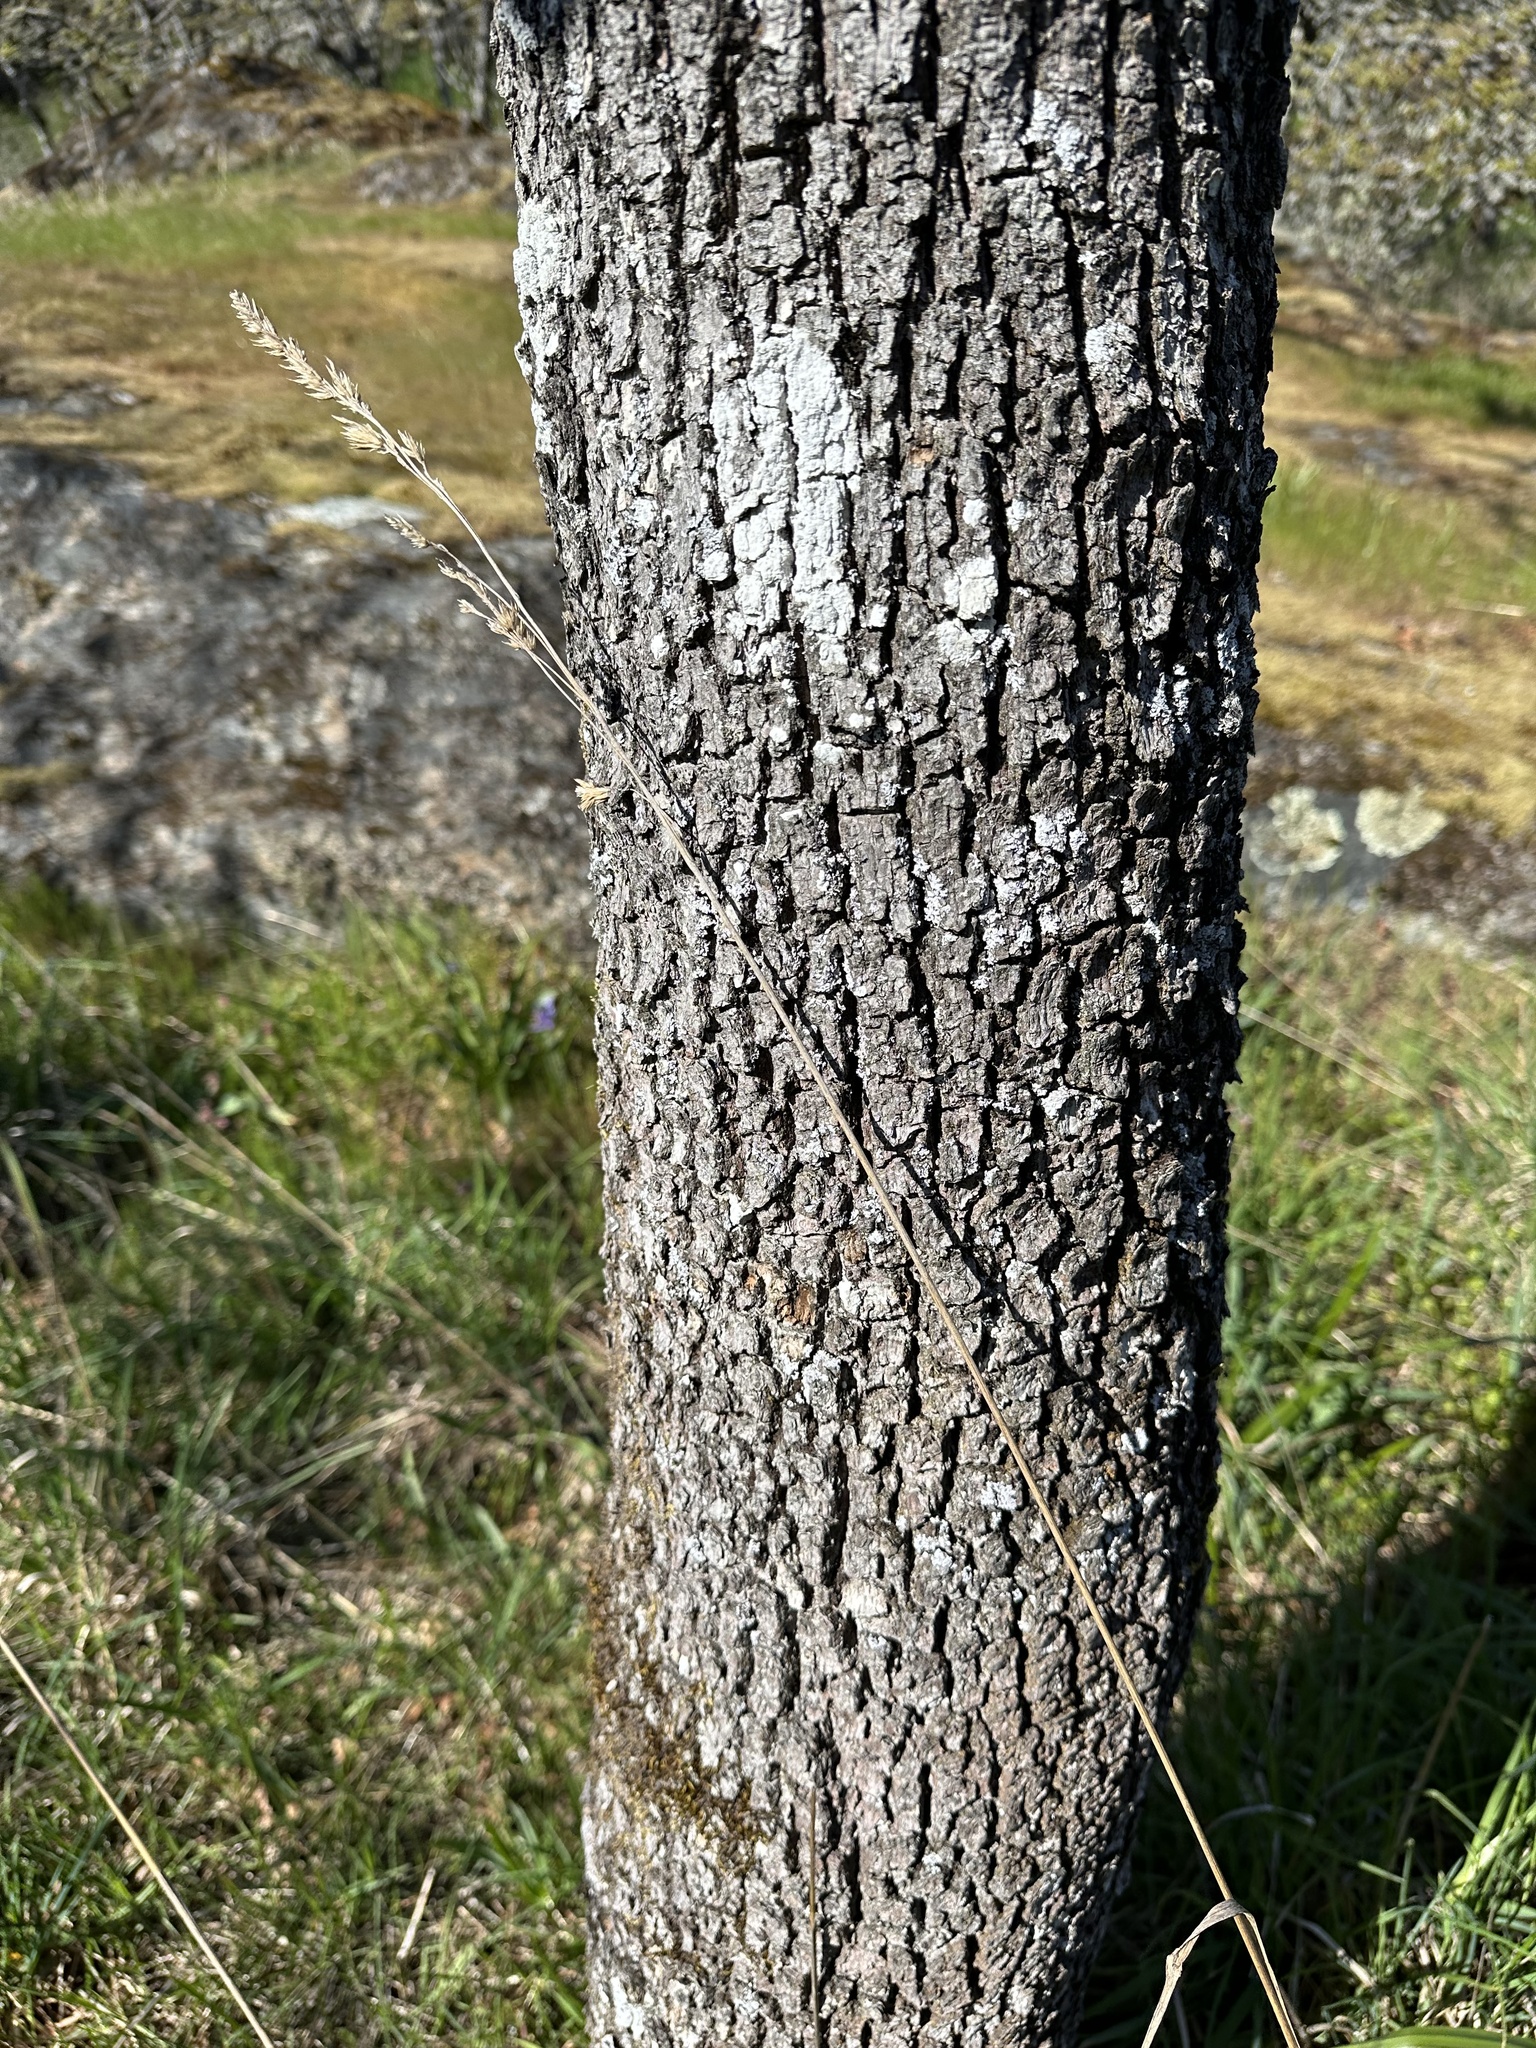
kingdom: Plantae
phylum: Tracheophyta
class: Magnoliopsida
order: Fagales
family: Fagaceae
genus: Quercus
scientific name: Quercus garryana
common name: Garry oak
